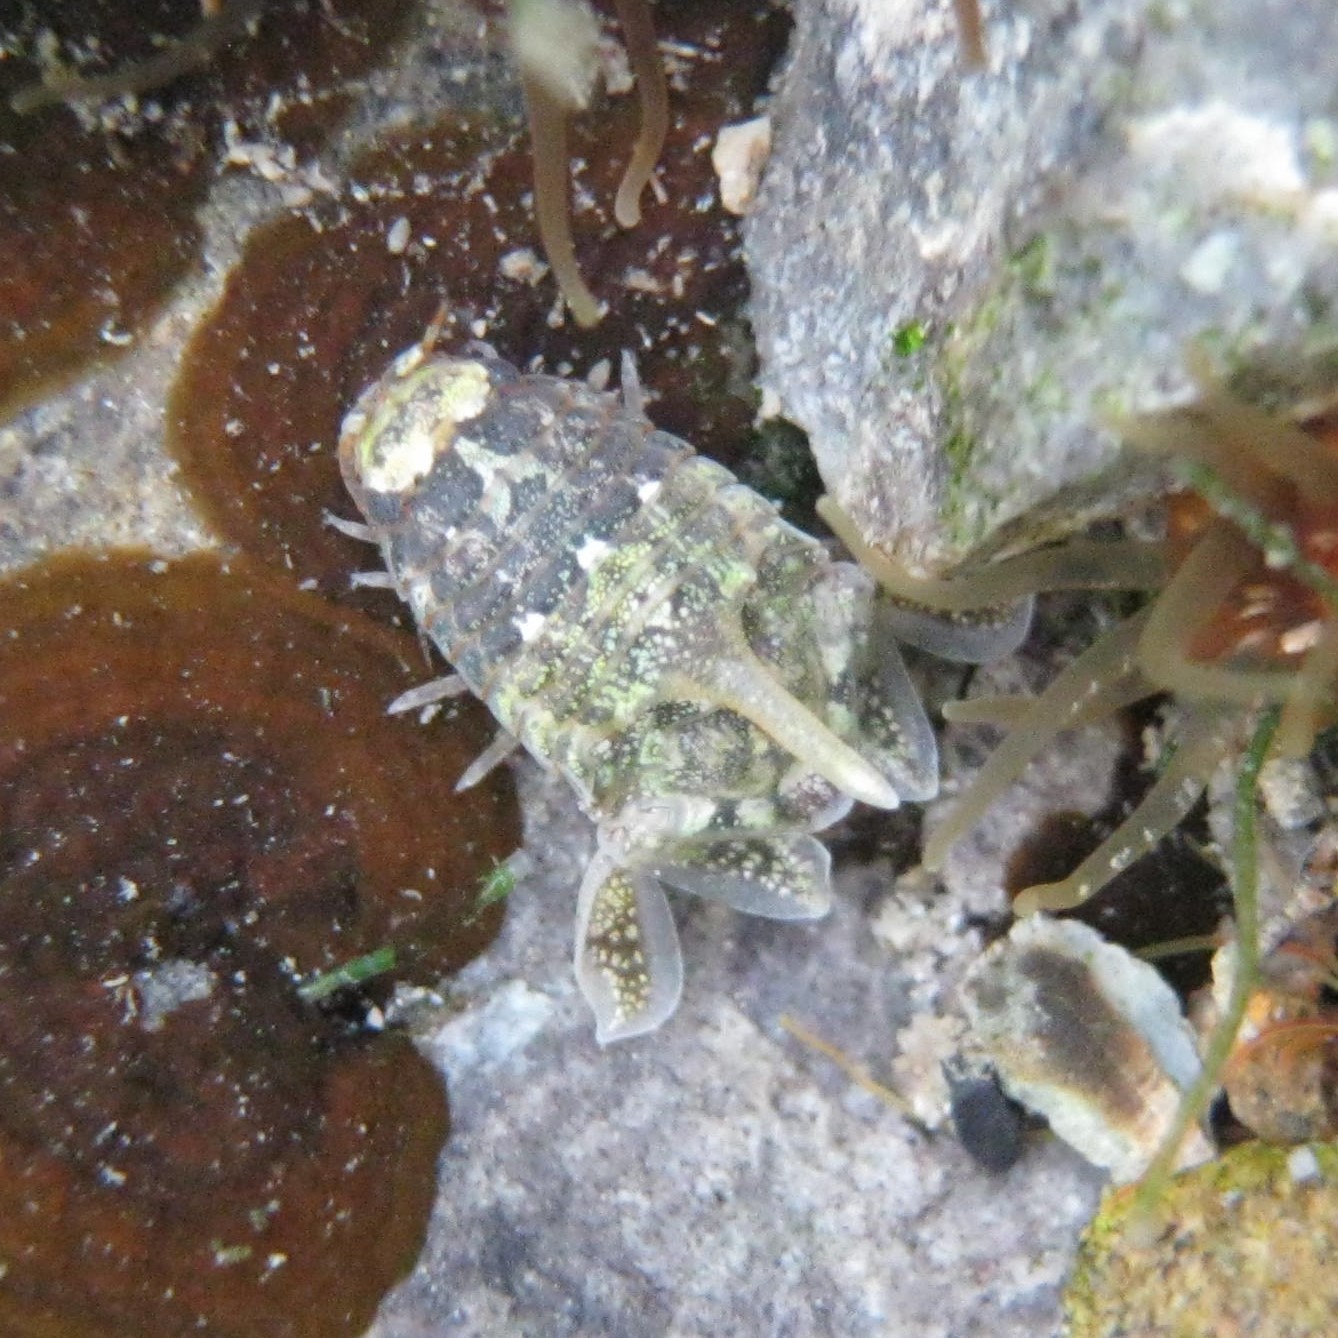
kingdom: Animalia
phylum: Arthropoda
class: Malacostraca
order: Isopoda
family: Sphaeromatidae
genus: Isocladus
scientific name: Isocladus dulciculus
